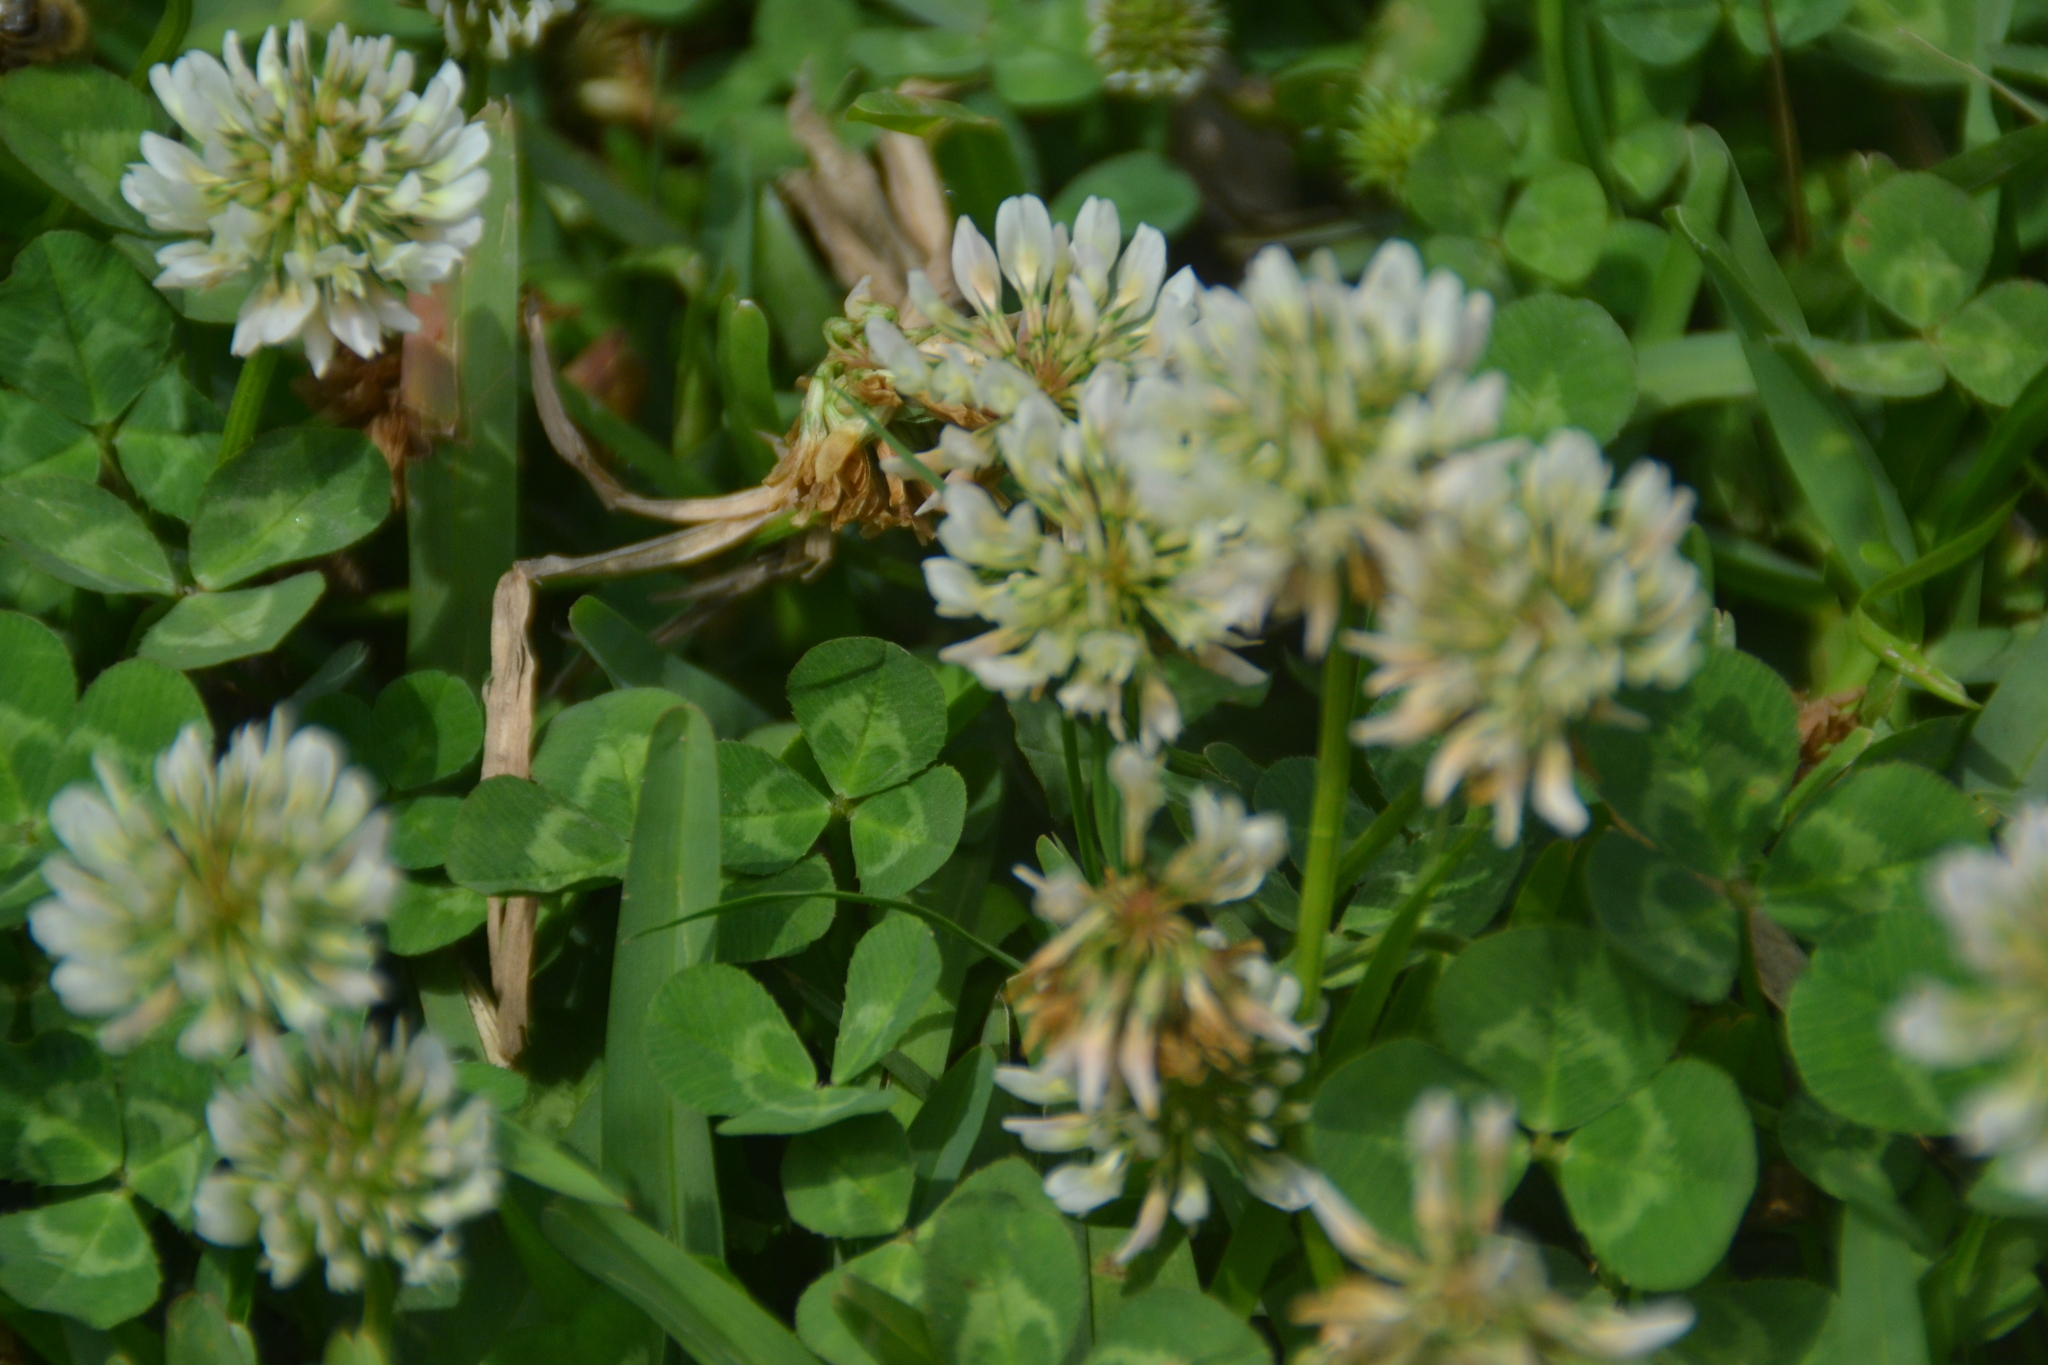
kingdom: Plantae
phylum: Tracheophyta
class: Magnoliopsida
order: Fabales
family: Fabaceae
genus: Trifolium
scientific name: Trifolium repens
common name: White clover
